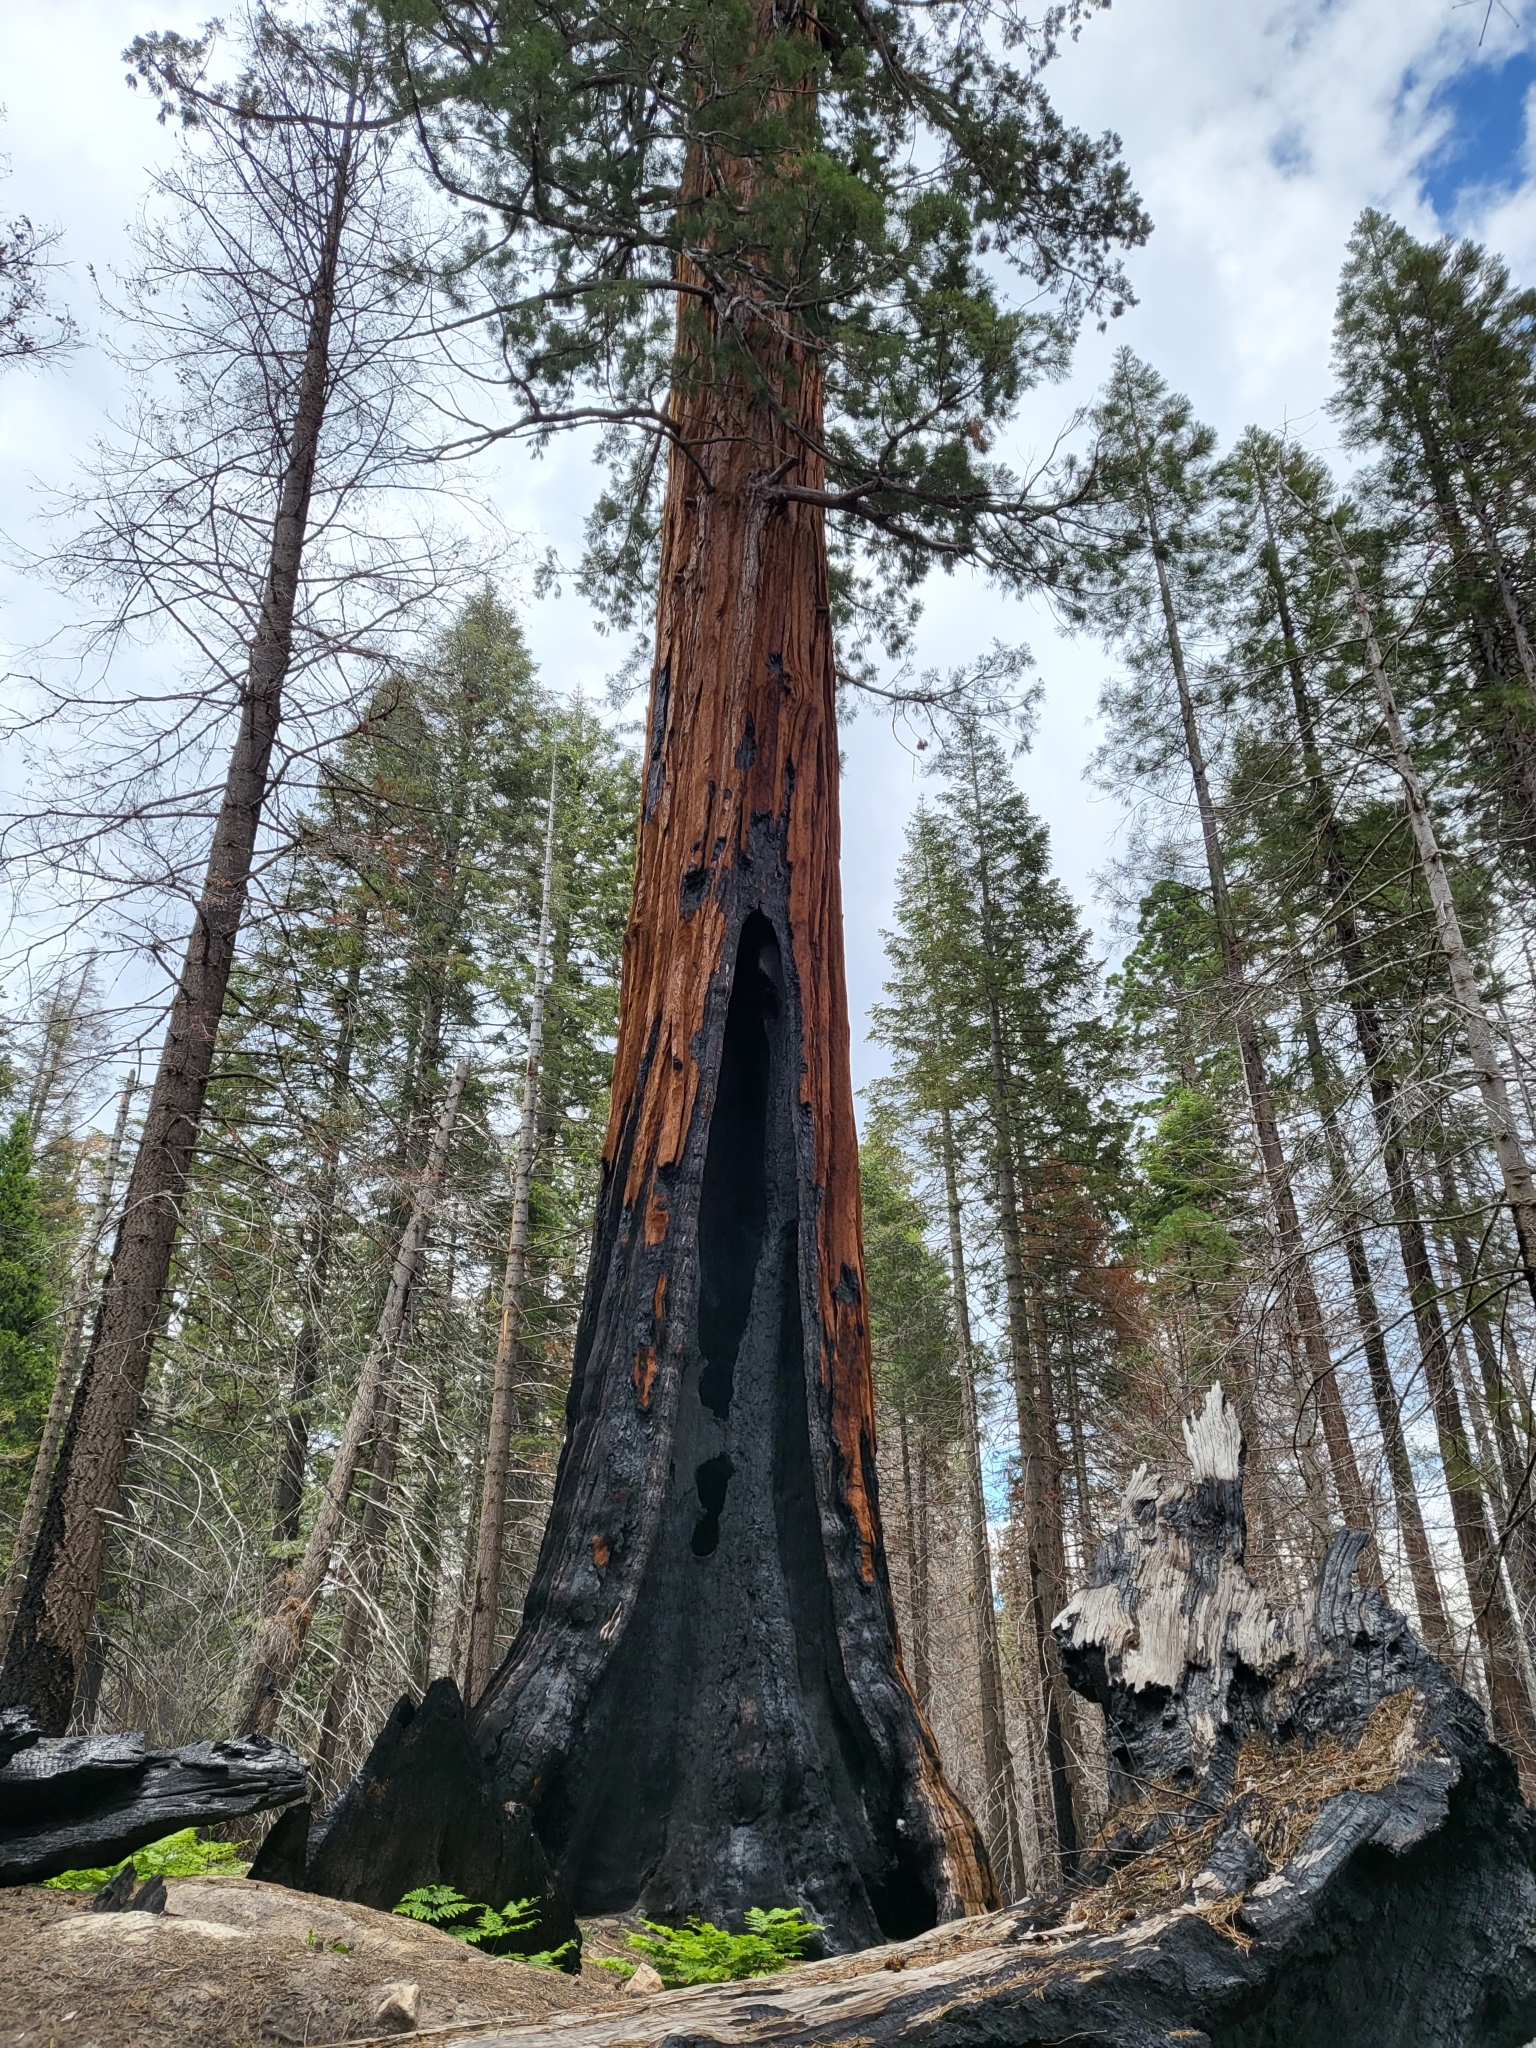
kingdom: Plantae
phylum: Tracheophyta
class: Pinopsida
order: Pinales
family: Cupressaceae
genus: Sequoiadendron
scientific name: Sequoiadendron giganteum
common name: Wellingtonia
